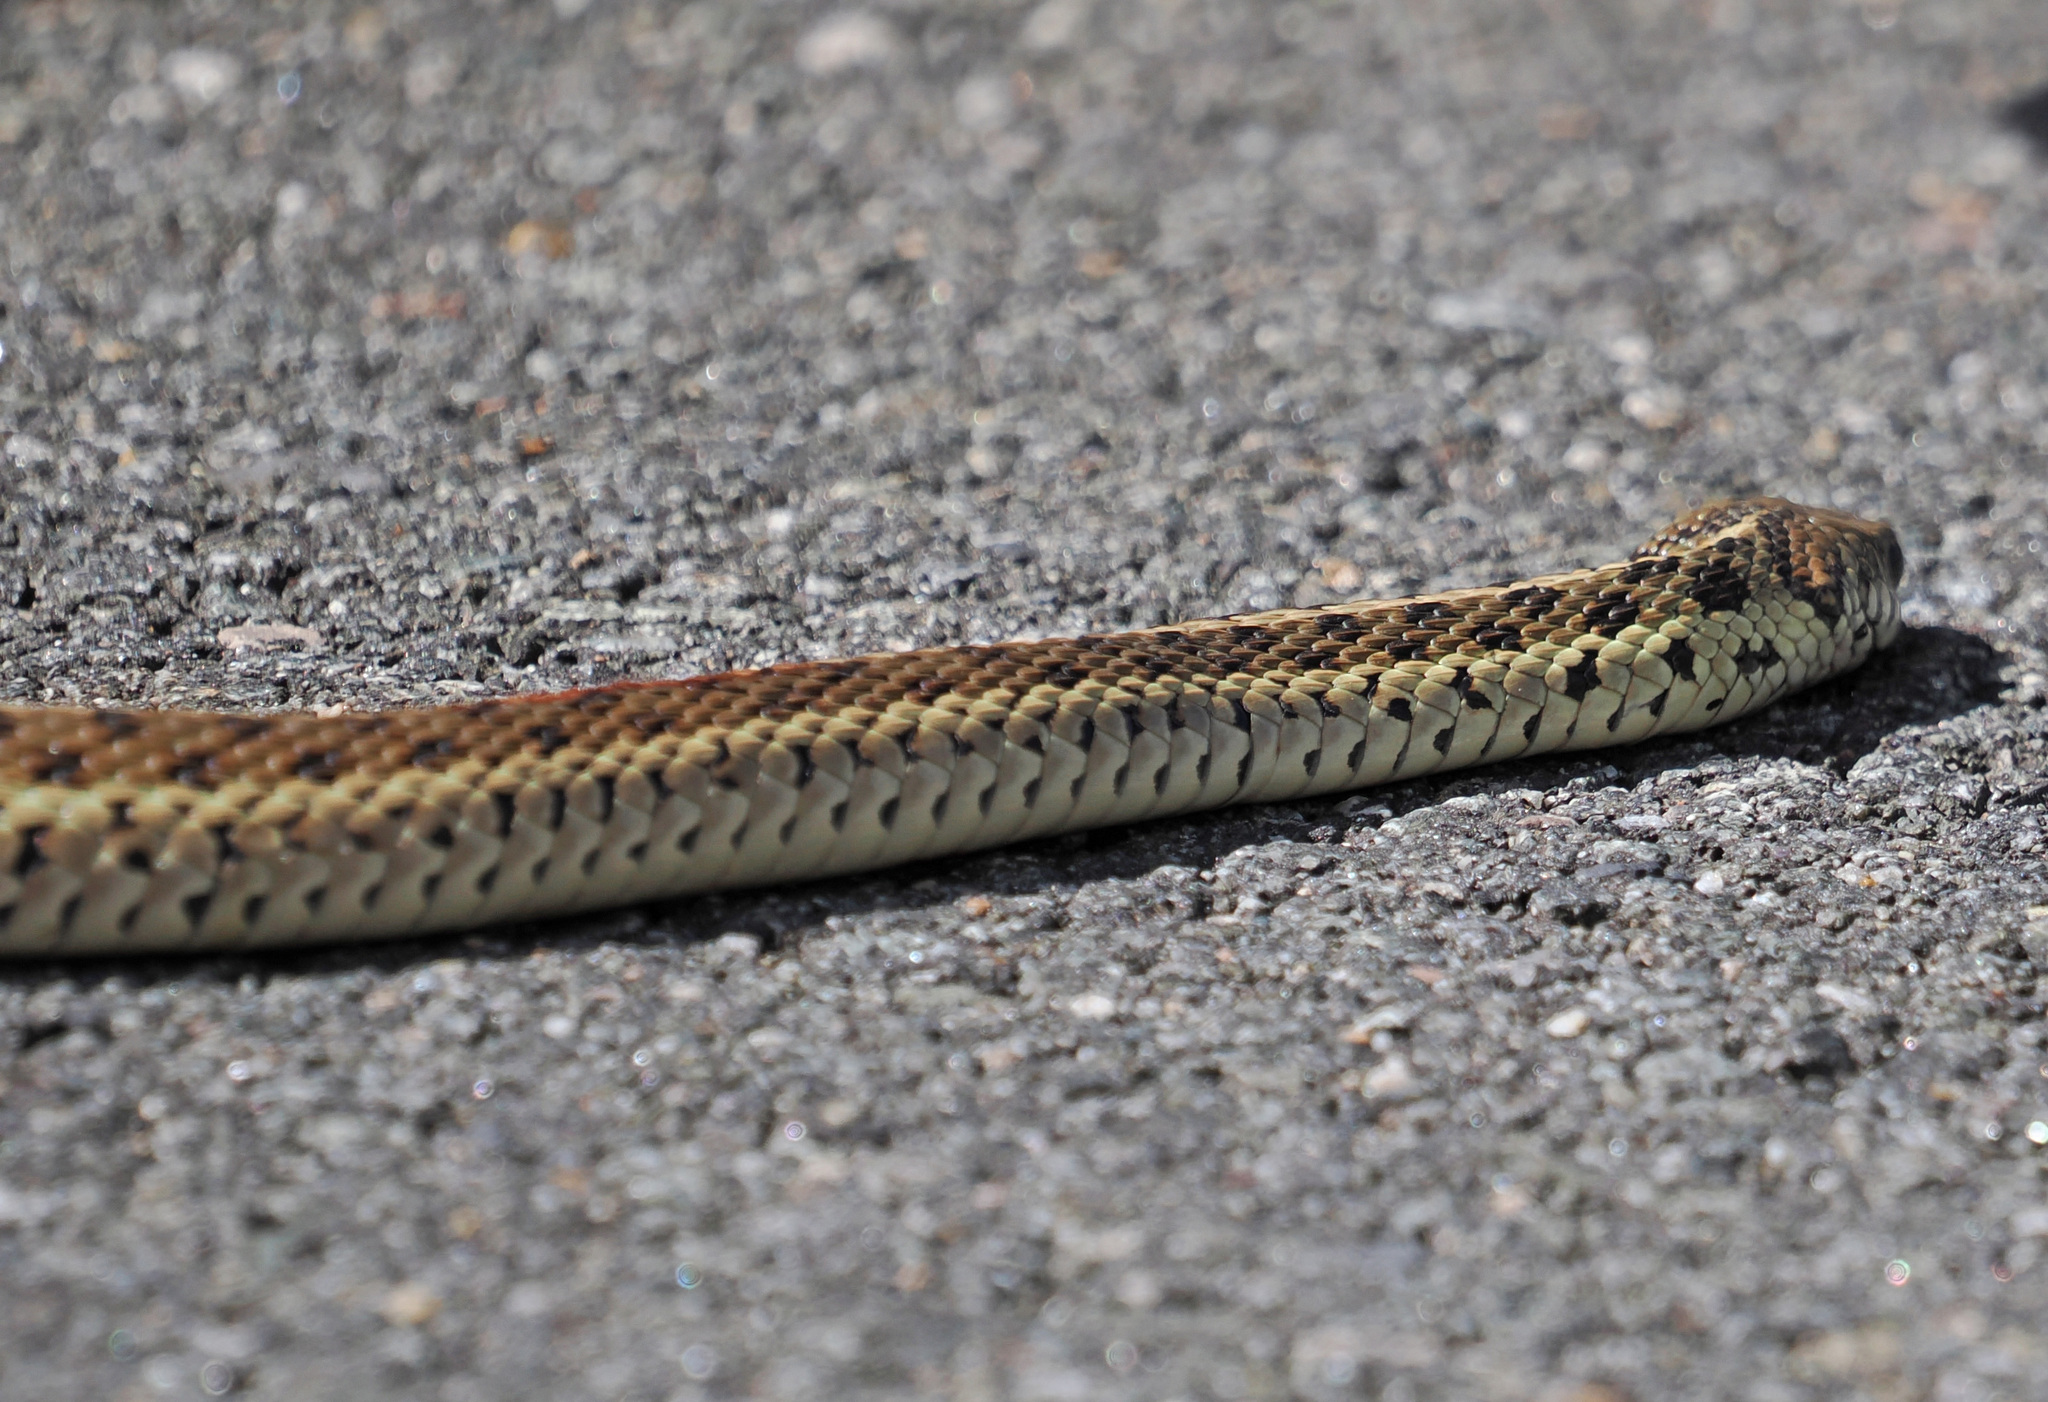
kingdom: Animalia
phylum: Chordata
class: Squamata
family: Colubridae
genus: Thamnophis
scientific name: Thamnophis sirtalis
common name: Common garter snake
